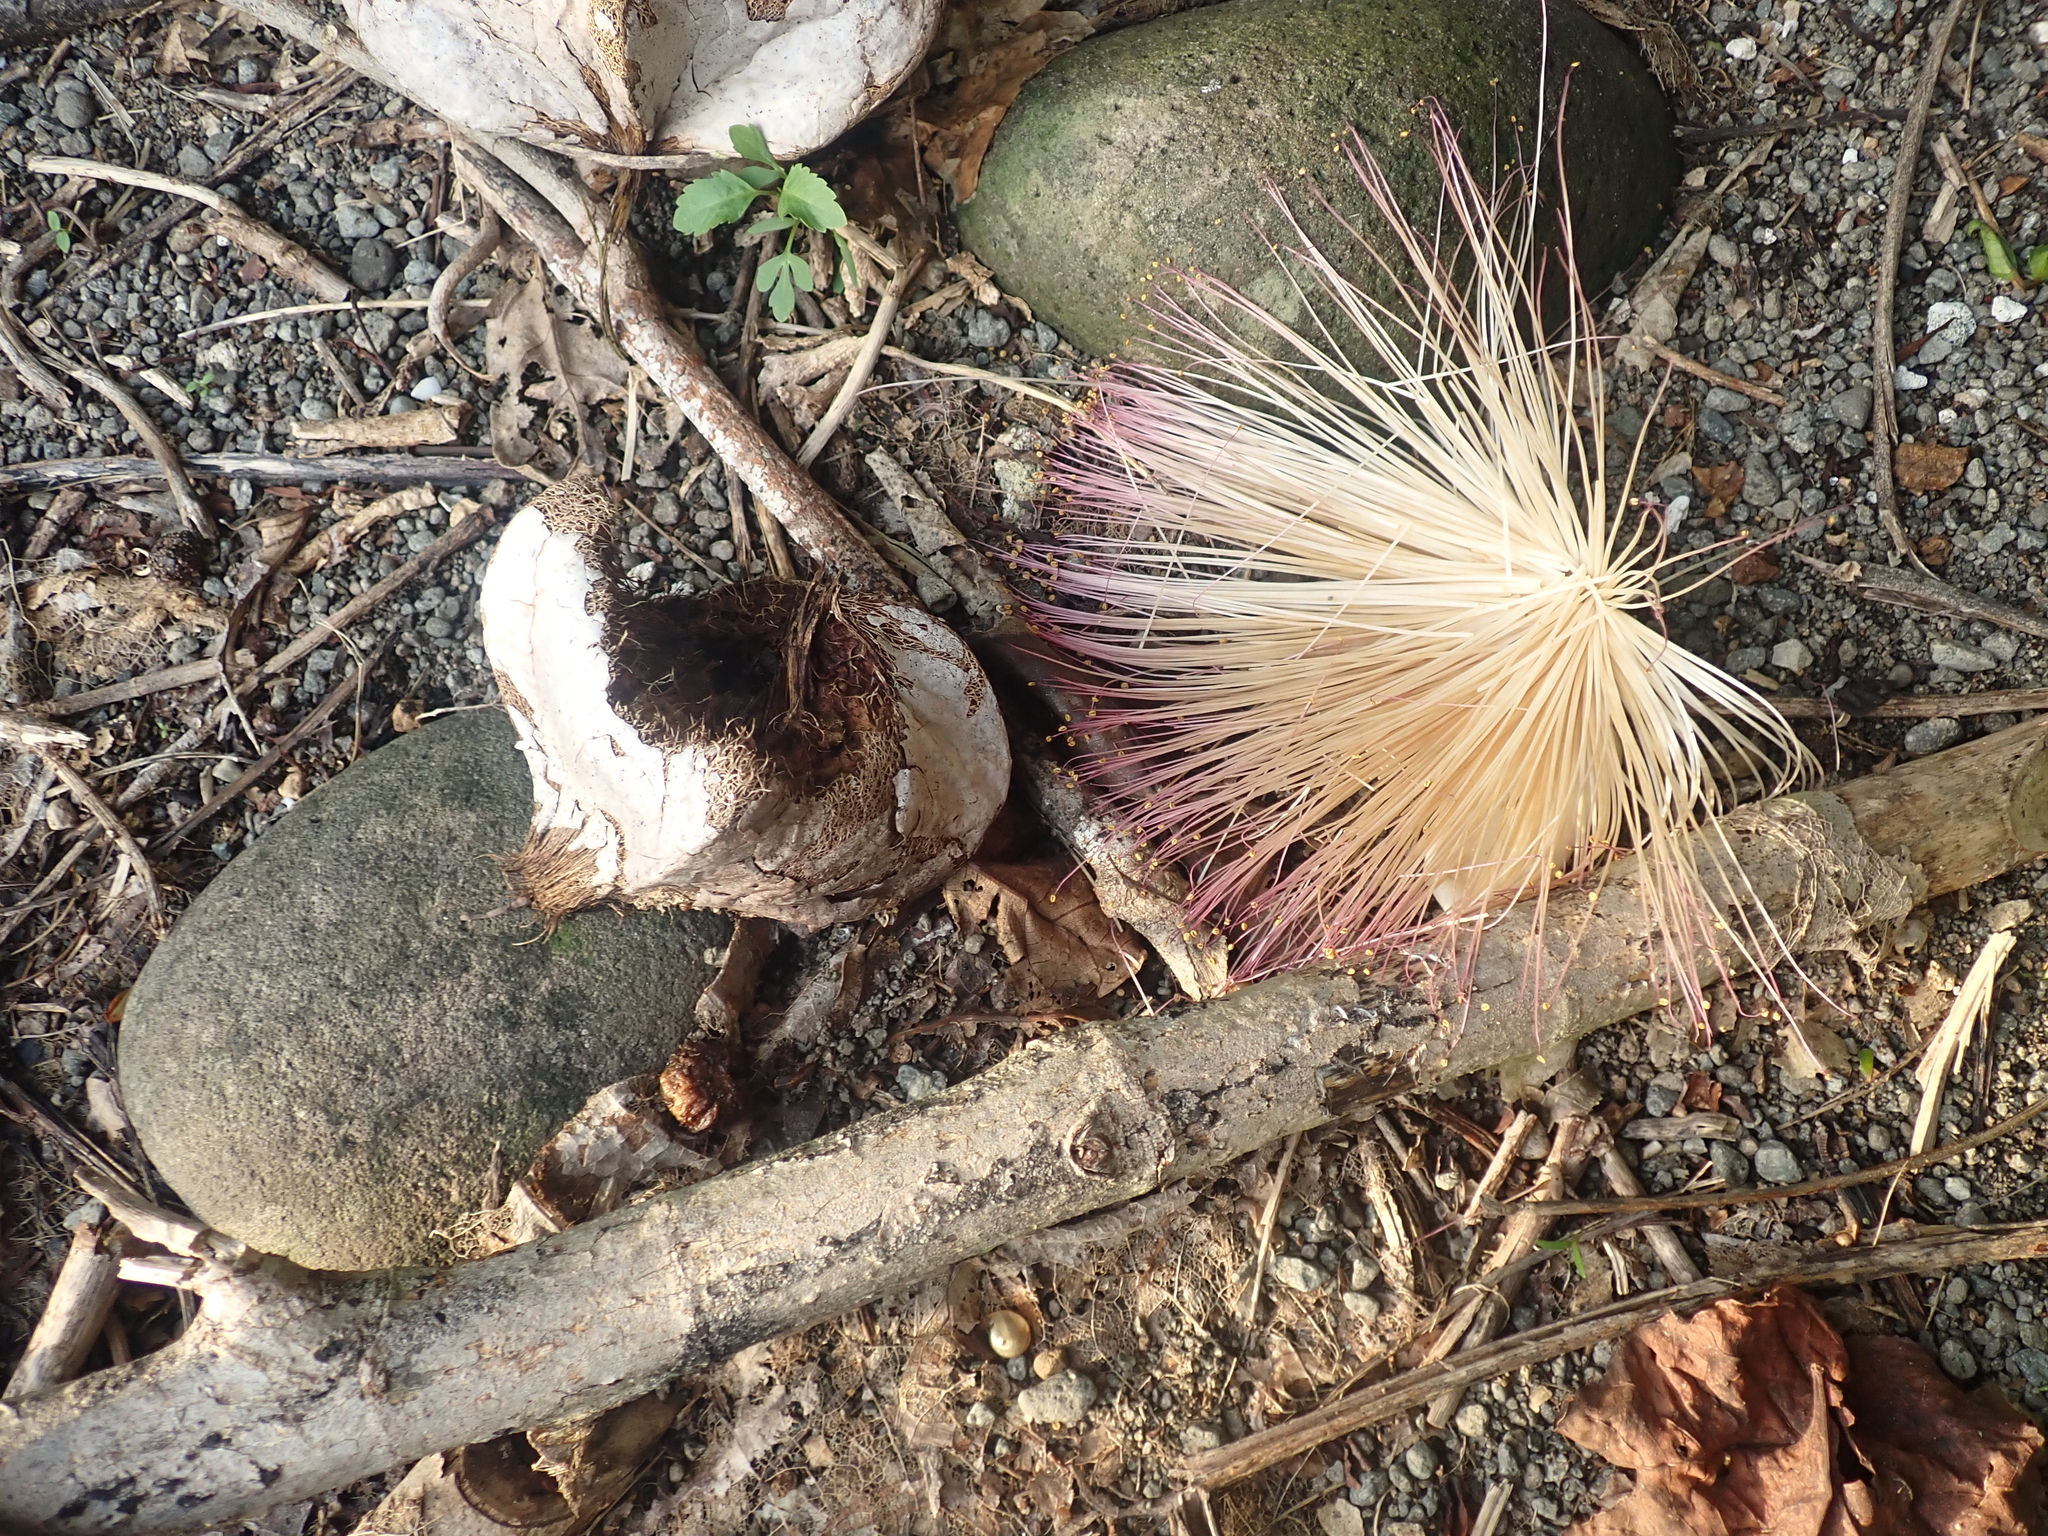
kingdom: Plantae
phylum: Tracheophyta
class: Magnoliopsida
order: Ericales
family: Lecythidaceae
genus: Barringtonia
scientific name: Barringtonia asiatica
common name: Mango-pine
